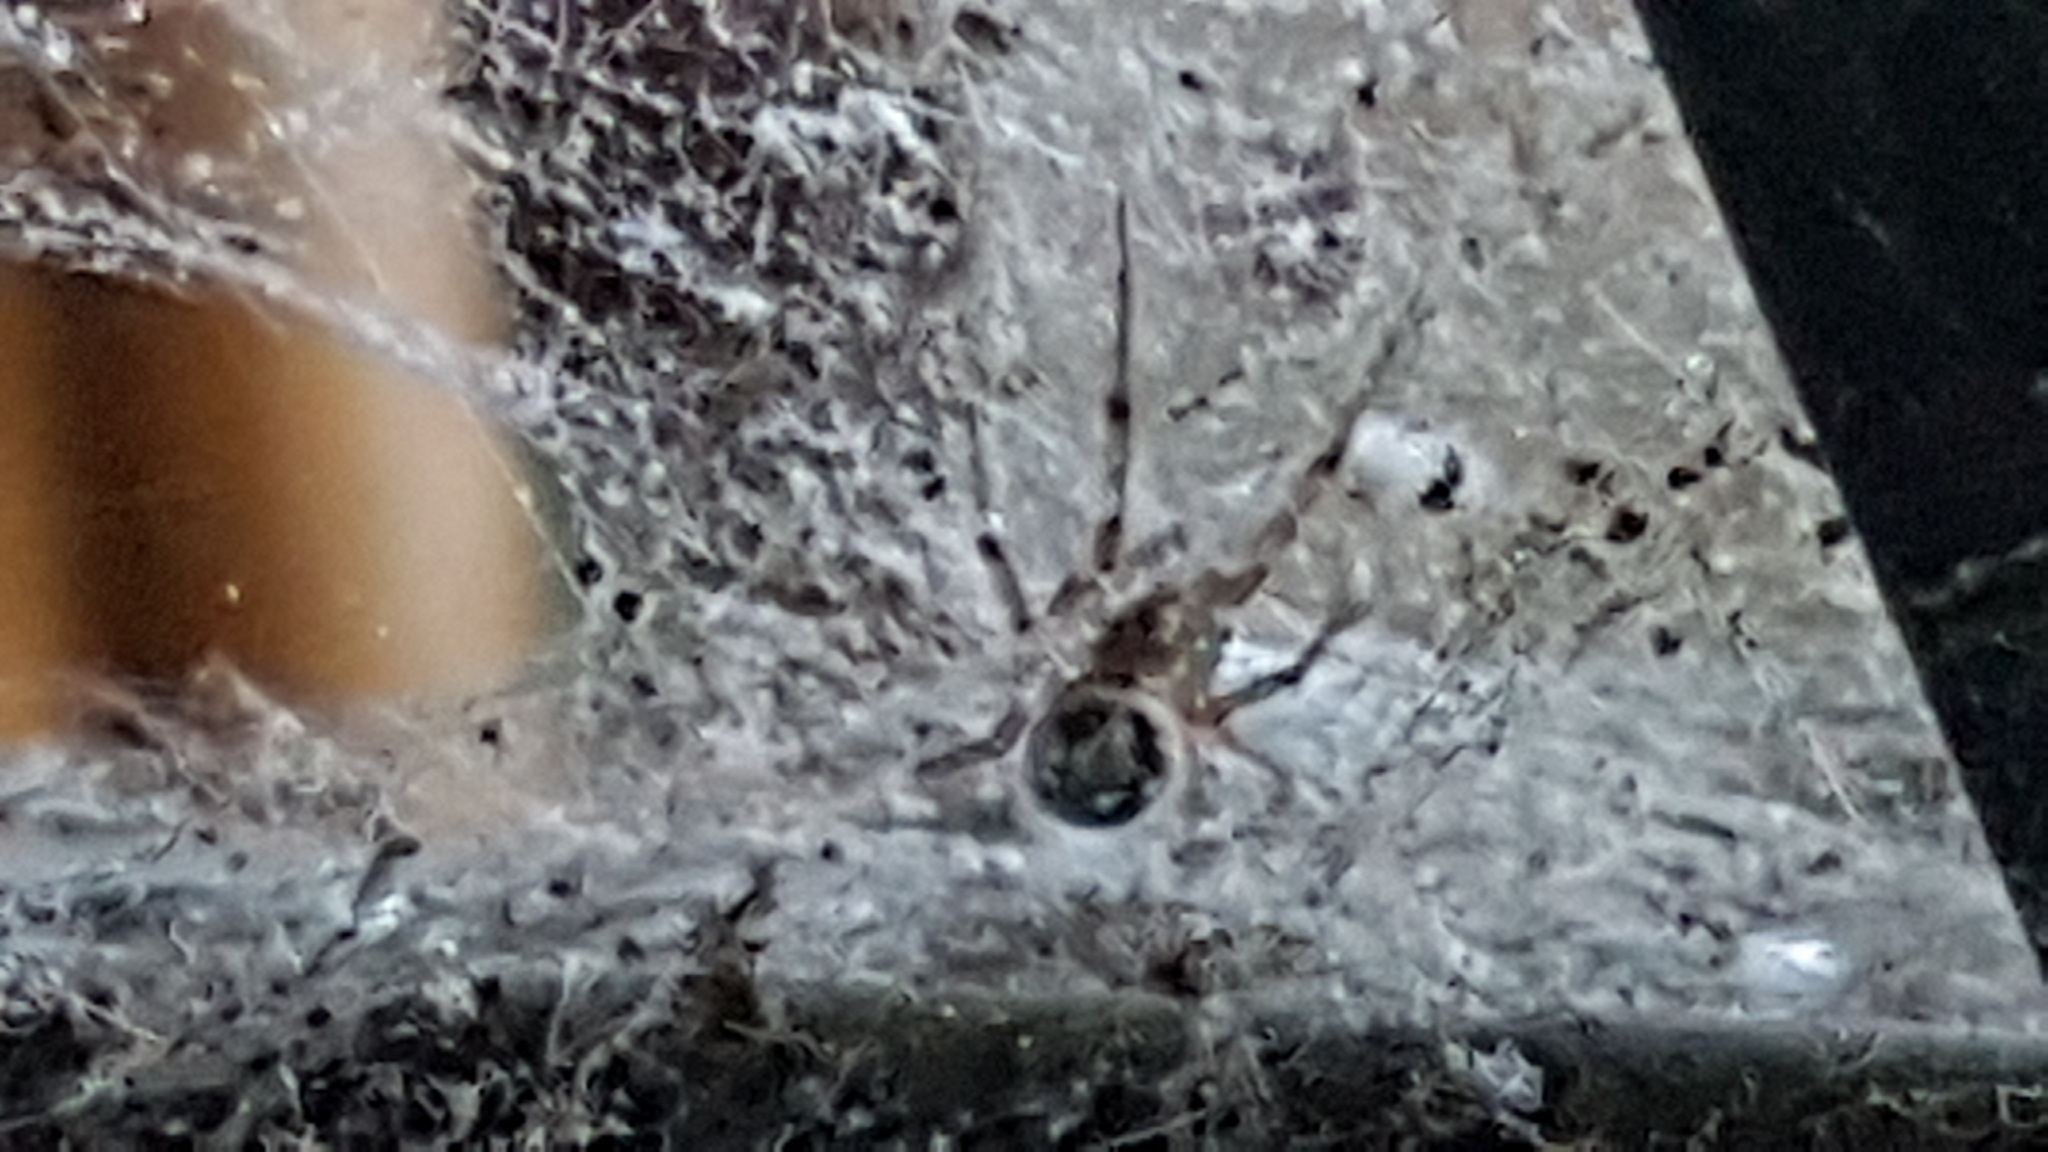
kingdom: Animalia
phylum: Arthropoda
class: Arachnida
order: Araneae
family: Theridiidae
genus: Steatoda
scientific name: Steatoda nobilis
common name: Cobweb weaver
